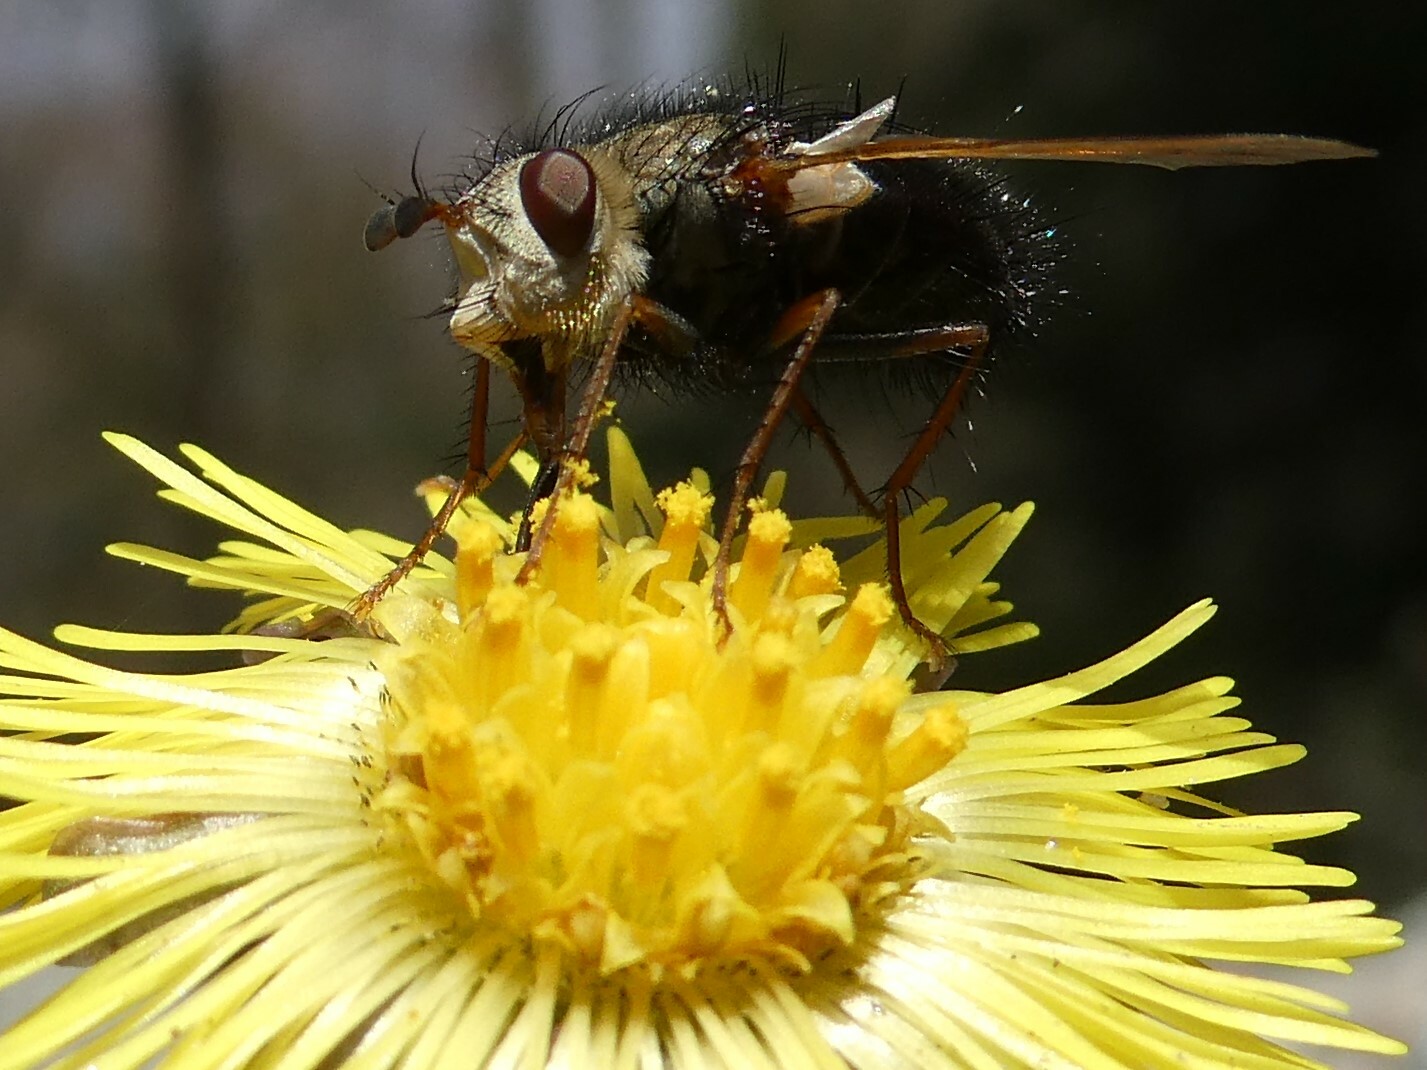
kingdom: Animalia
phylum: Arthropoda
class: Insecta
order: Diptera
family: Tachinidae
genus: Epalpus
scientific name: Epalpus signifer
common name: Early tachinid fly
